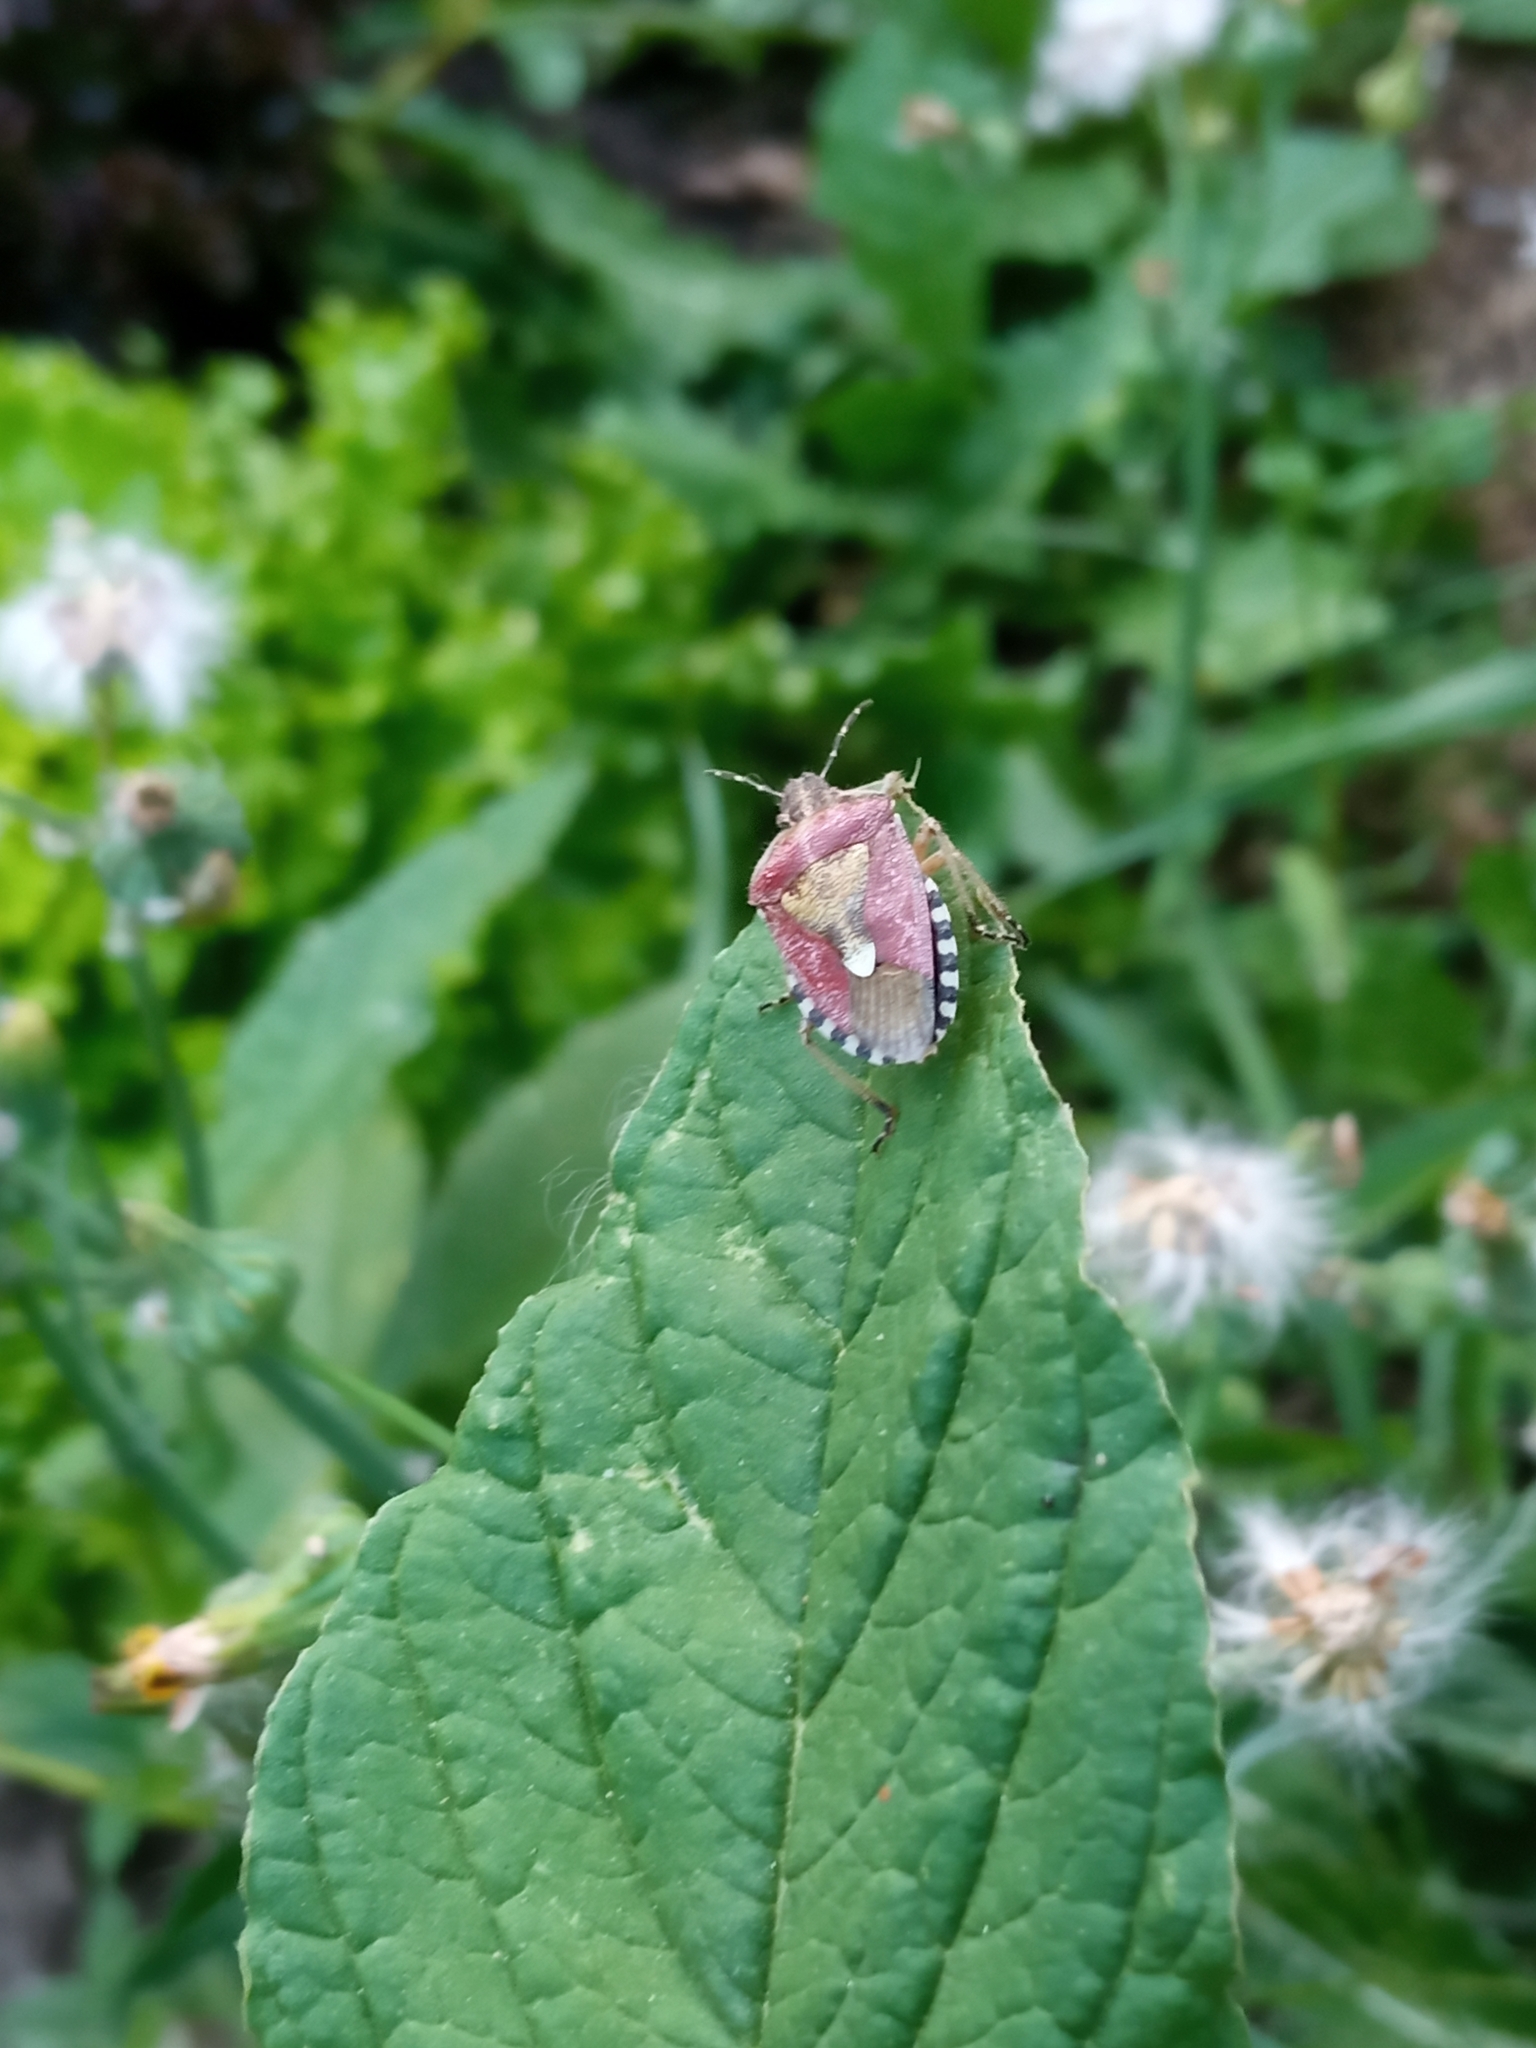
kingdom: Animalia
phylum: Arthropoda
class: Insecta
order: Hemiptera
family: Pentatomidae
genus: Dolycoris
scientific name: Dolycoris baccarum
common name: Sloe bug
